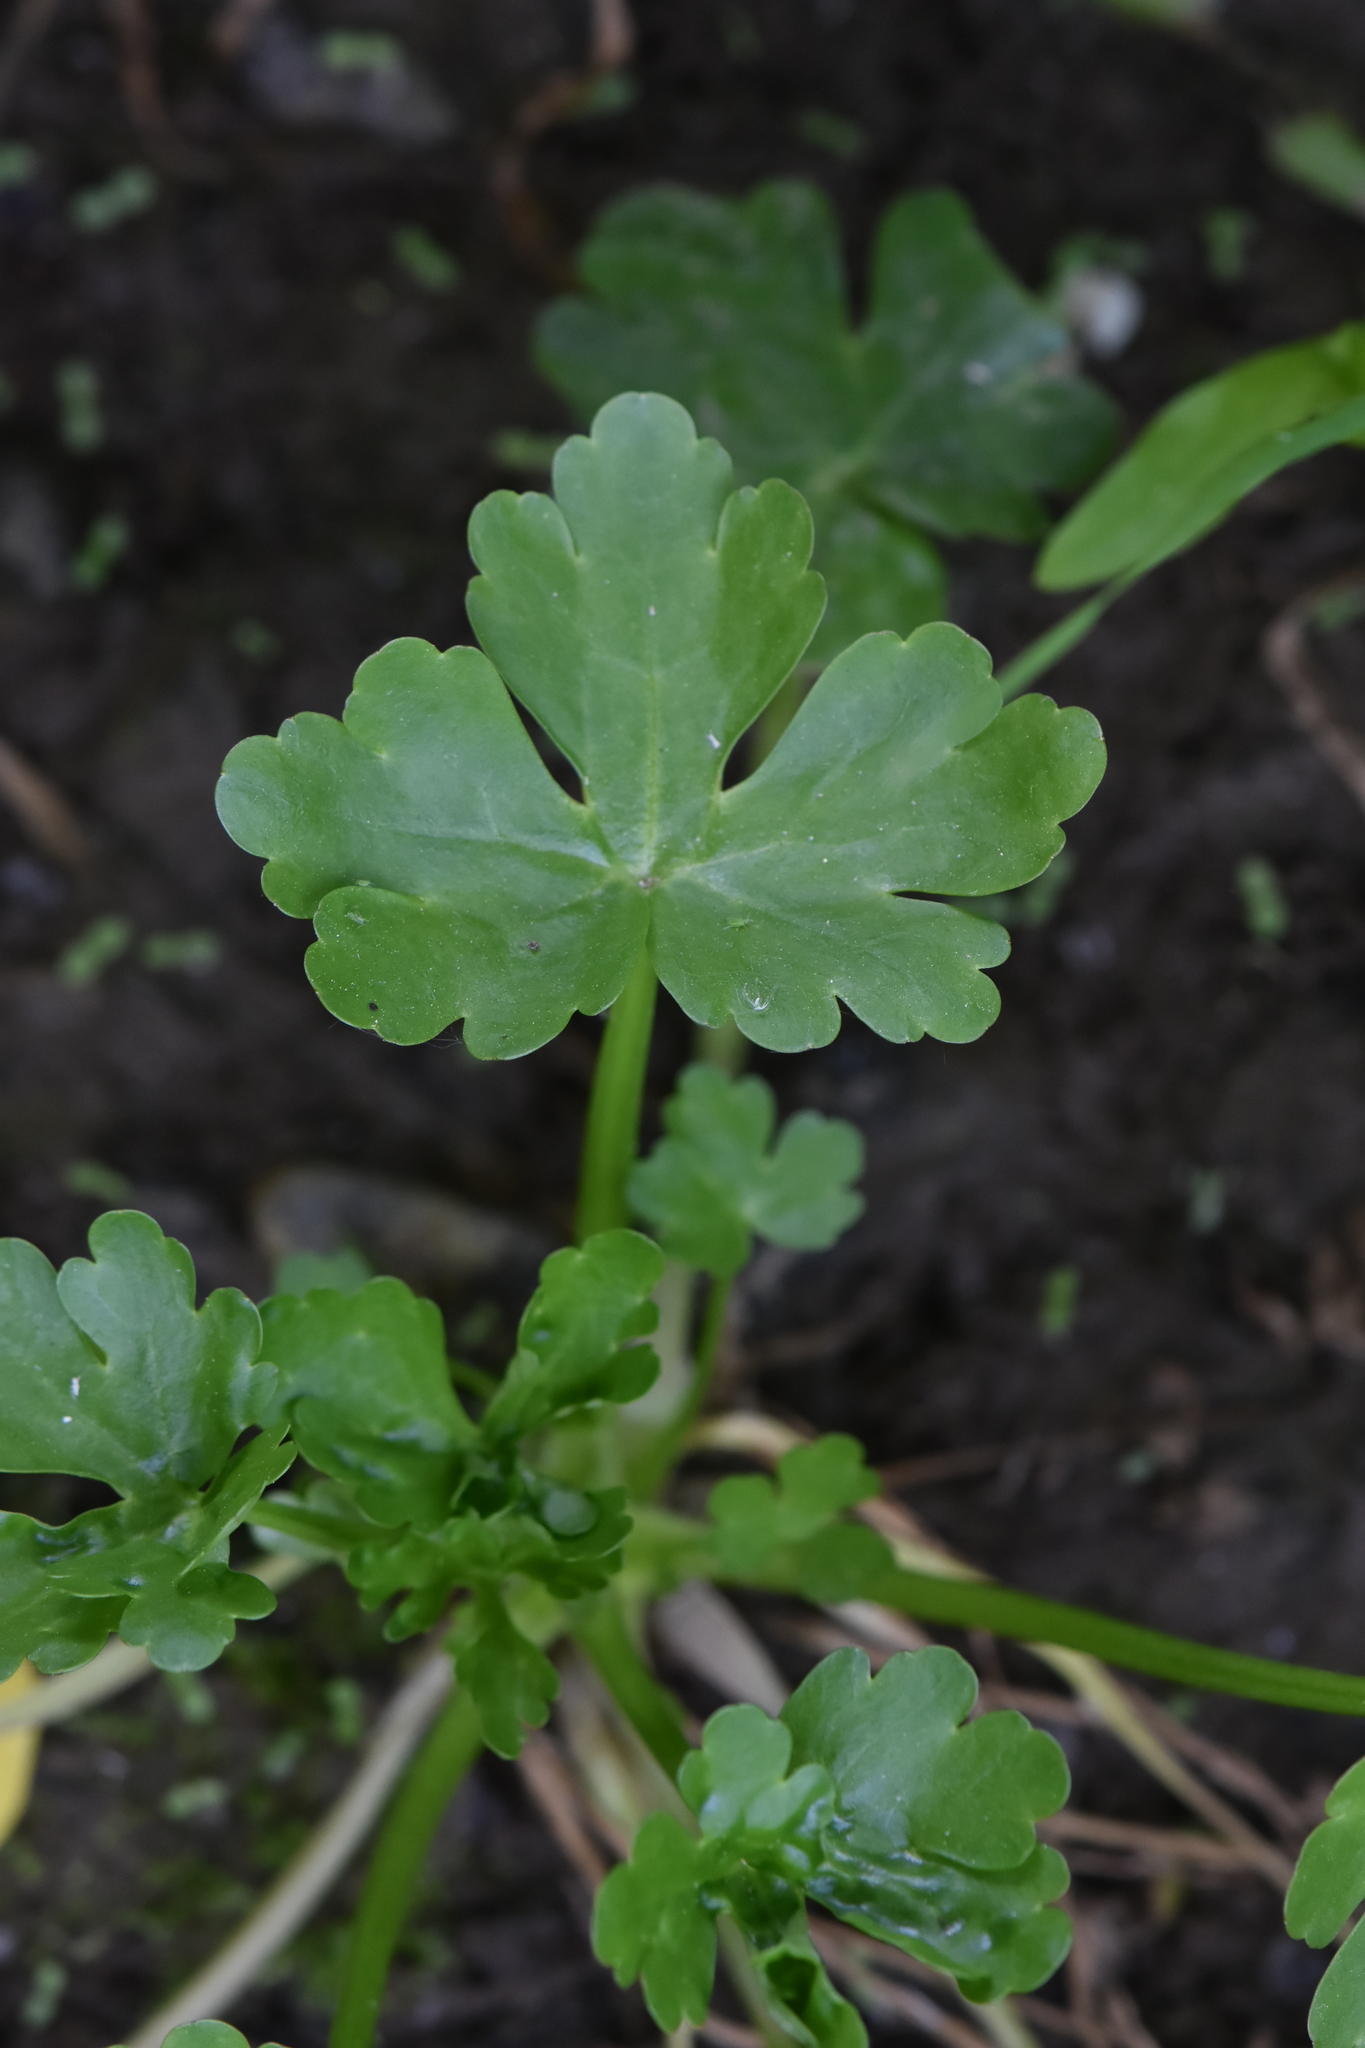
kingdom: Plantae
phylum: Tracheophyta
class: Magnoliopsida
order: Ranunculales
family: Ranunculaceae
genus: Ranunculus
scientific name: Ranunculus sceleratus
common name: Celery-leaved buttercup
